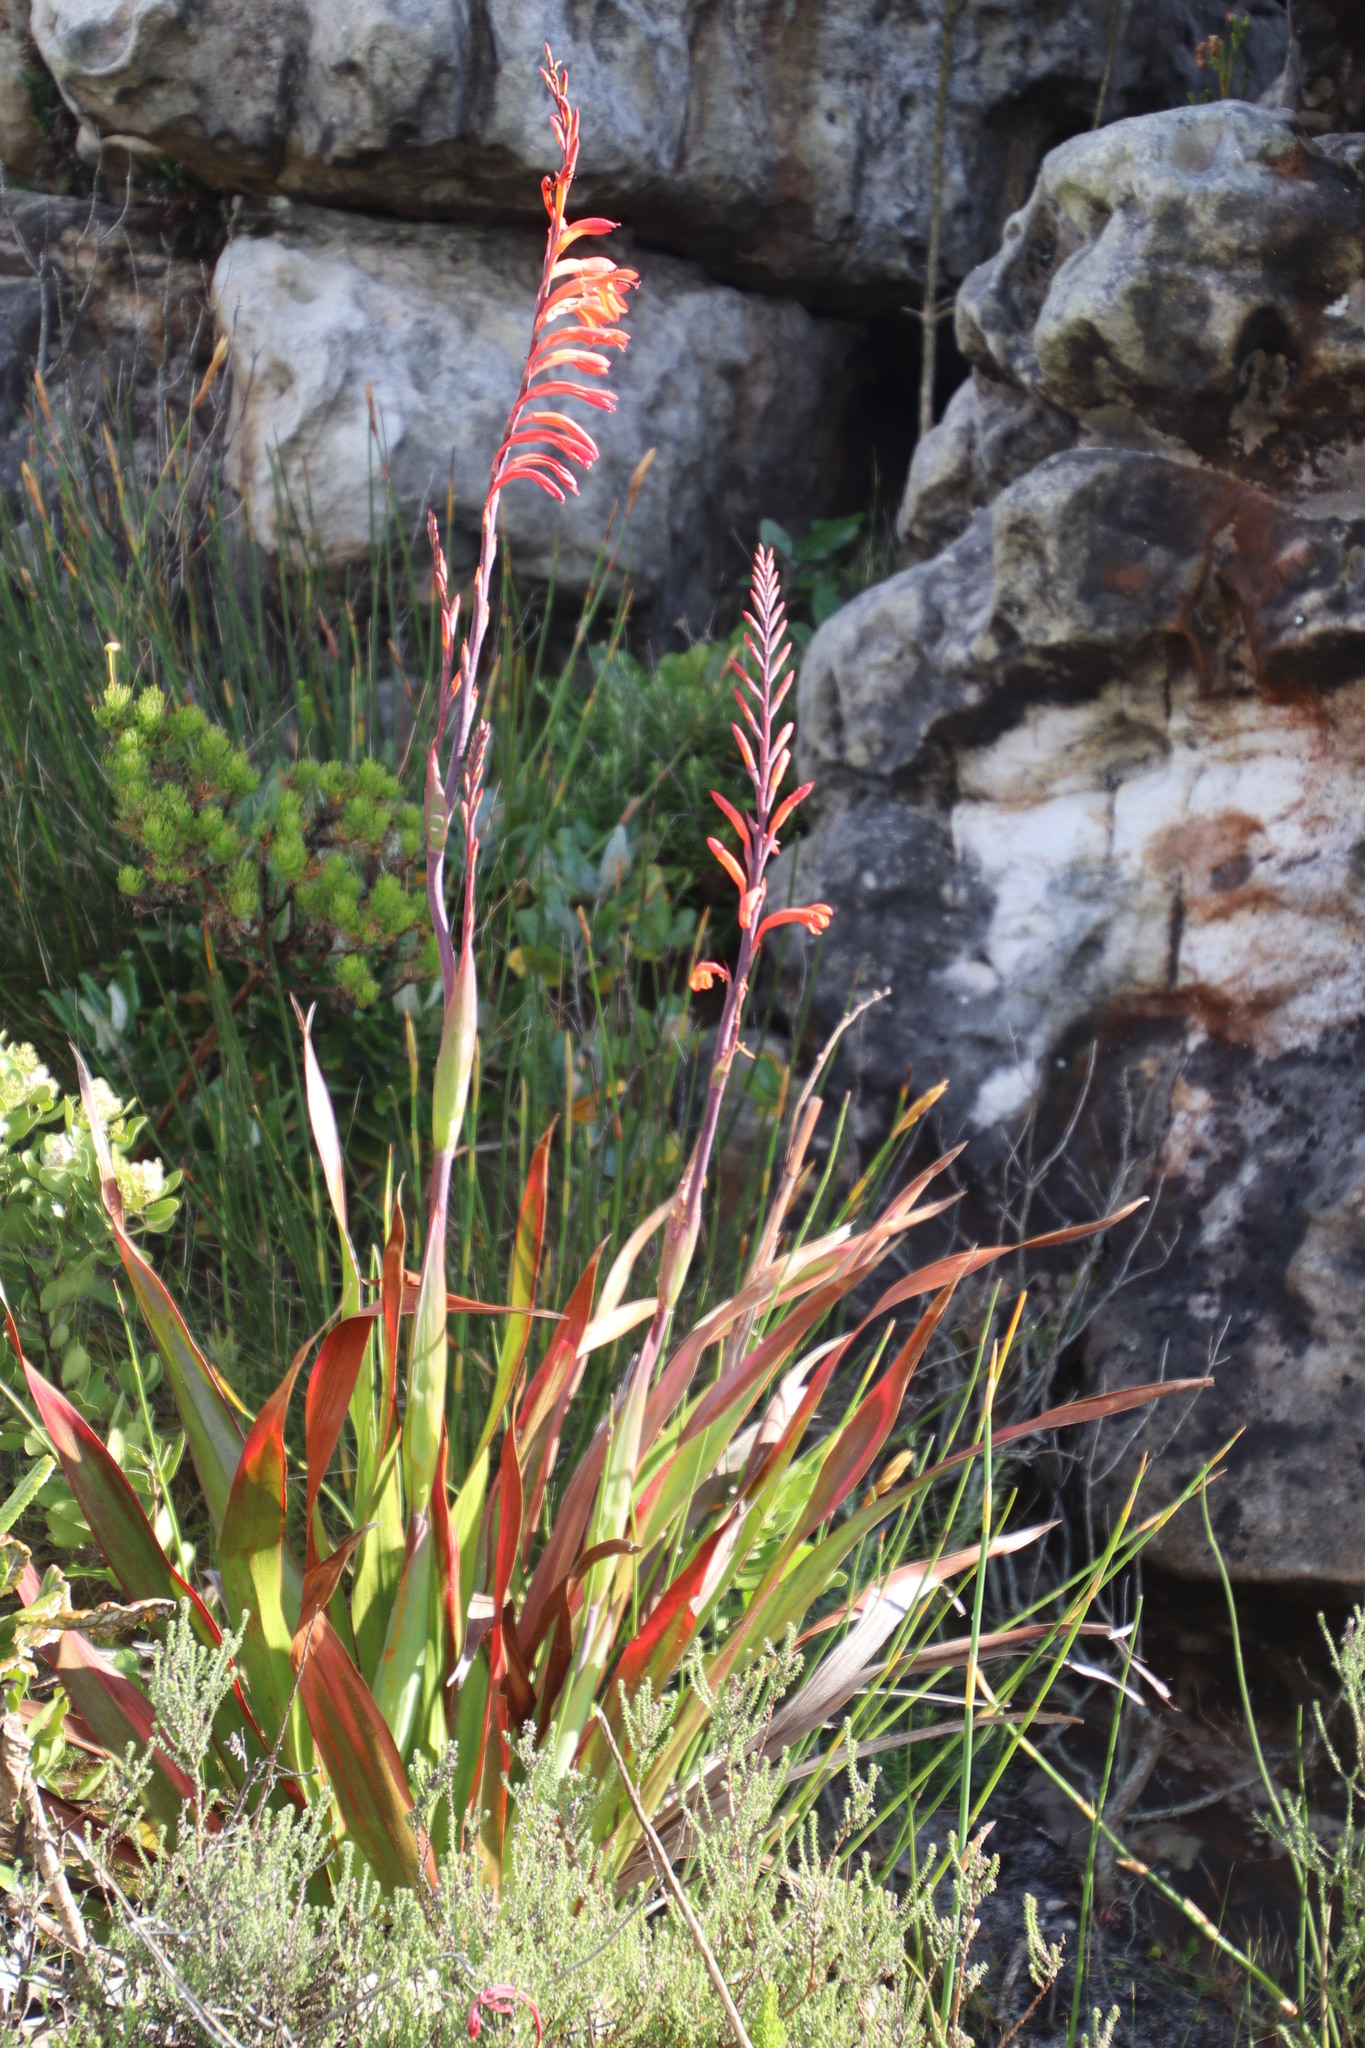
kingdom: Plantae
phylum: Tracheophyta
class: Liliopsida
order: Asparagales
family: Iridaceae
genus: Watsonia
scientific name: Watsonia tabularis
